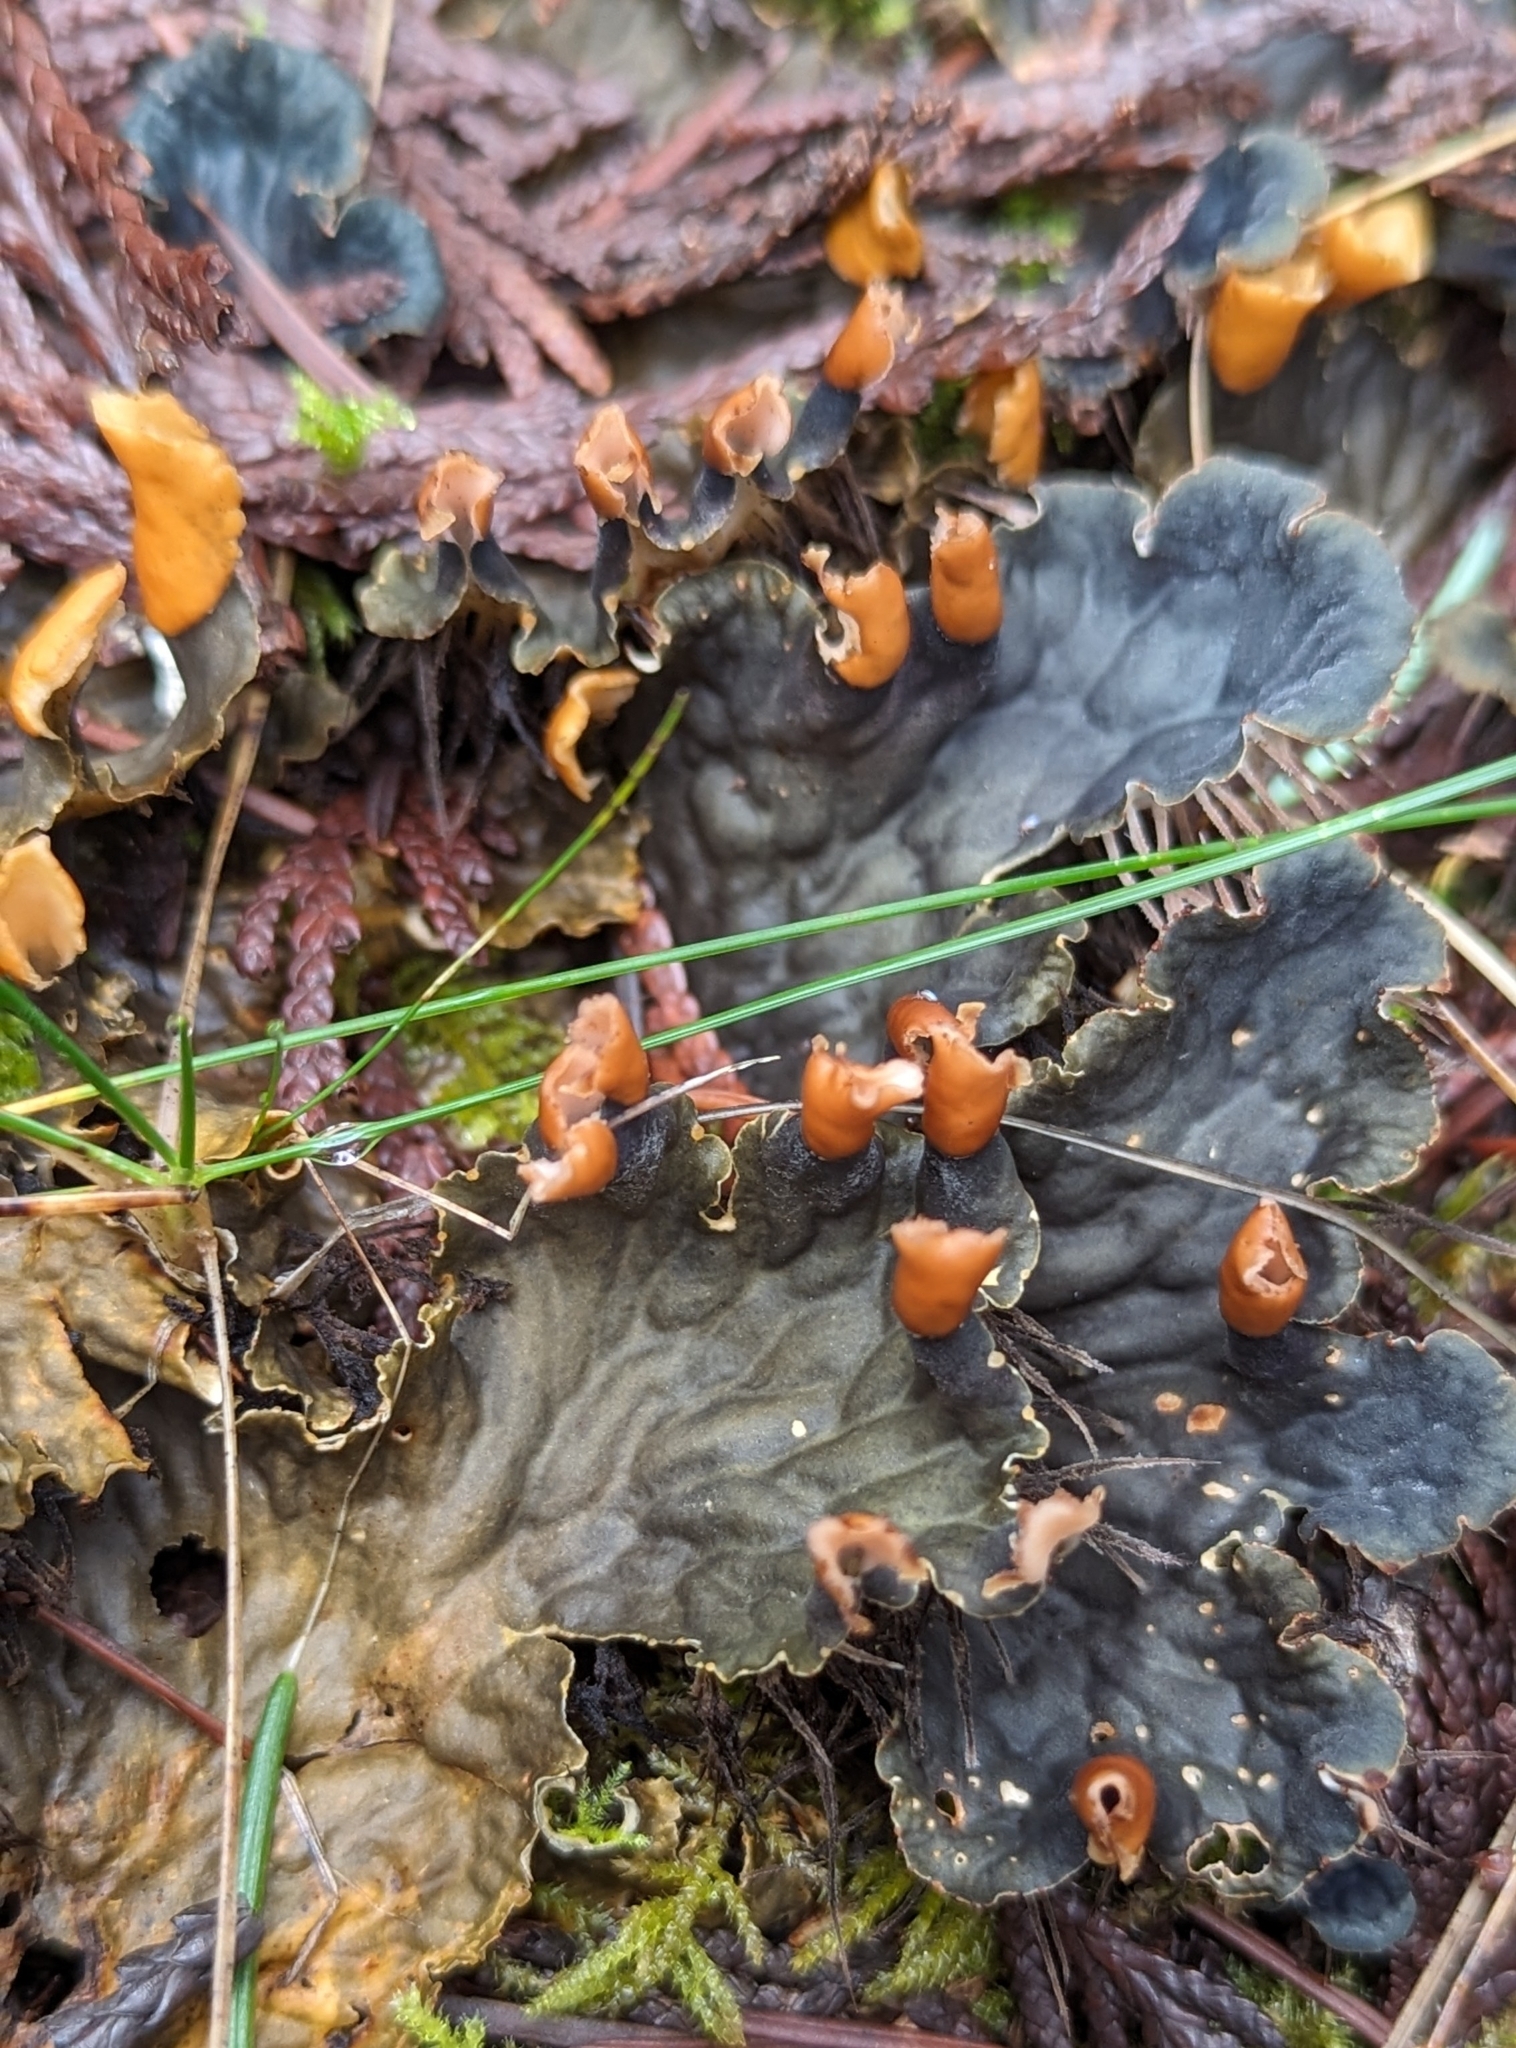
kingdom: Fungi
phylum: Ascomycota
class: Lecanoromycetes
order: Peltigerales
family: Peltigeraceae
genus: Peltigera
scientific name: Peltigera membranacea
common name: Membranous pelt lichen
